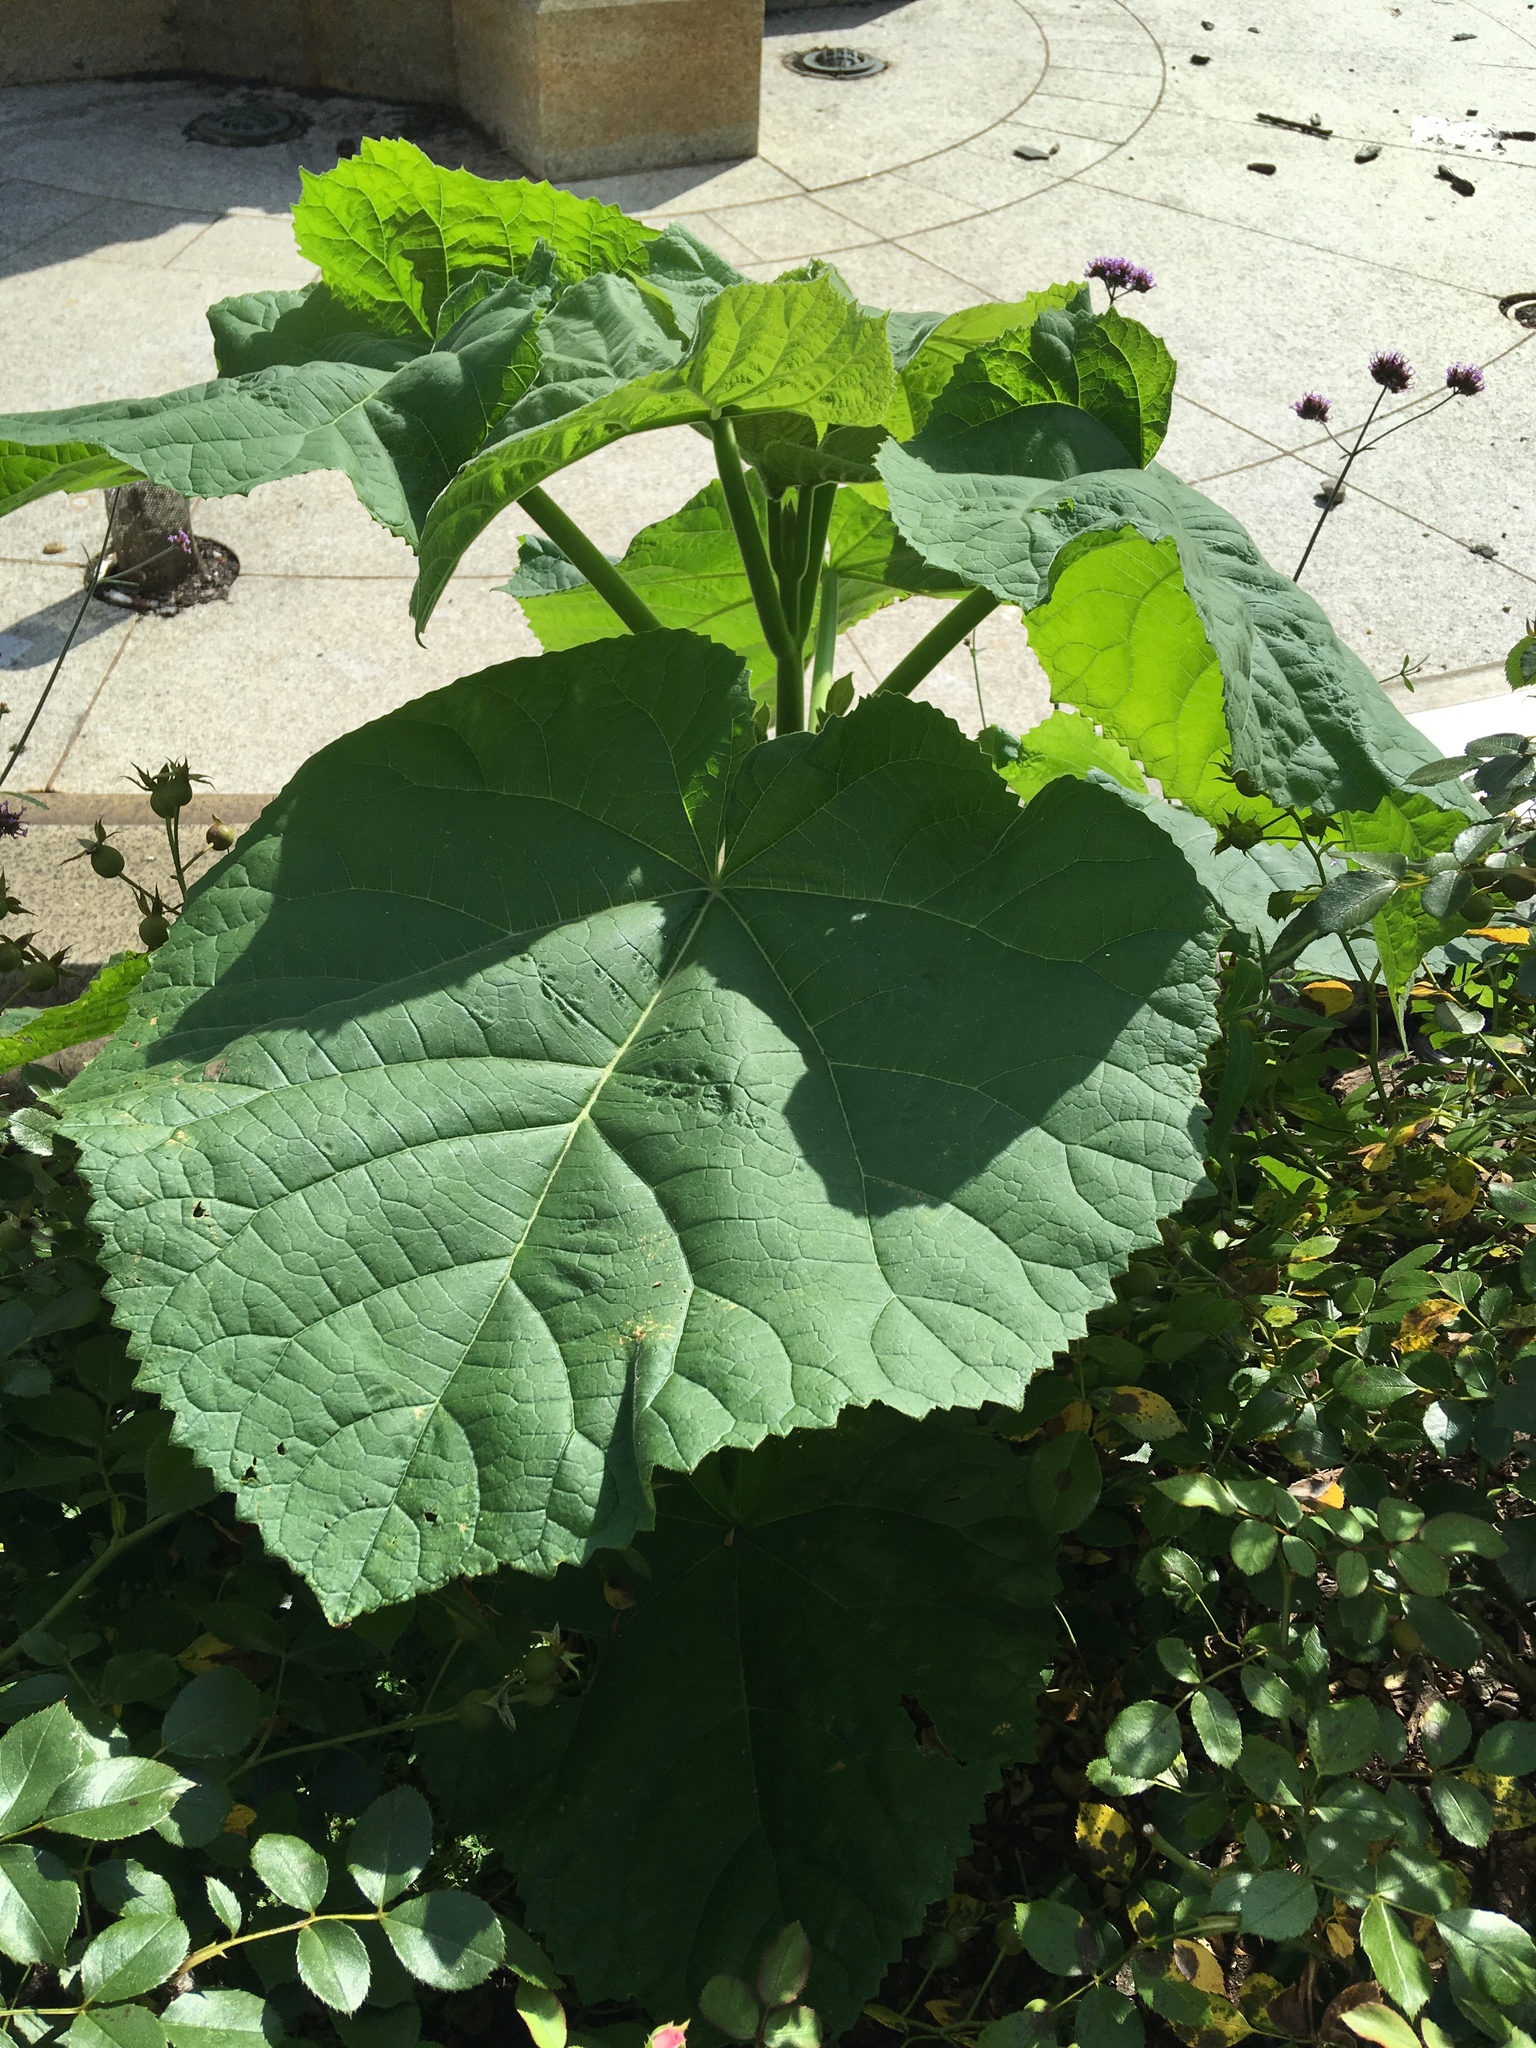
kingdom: Plantae
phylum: Tracheophyta
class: Magnoliopsida
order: Lamiales
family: Paulowniaceae
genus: Paulownia
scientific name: Paulownia tomentosa
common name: Foxglove-tree
